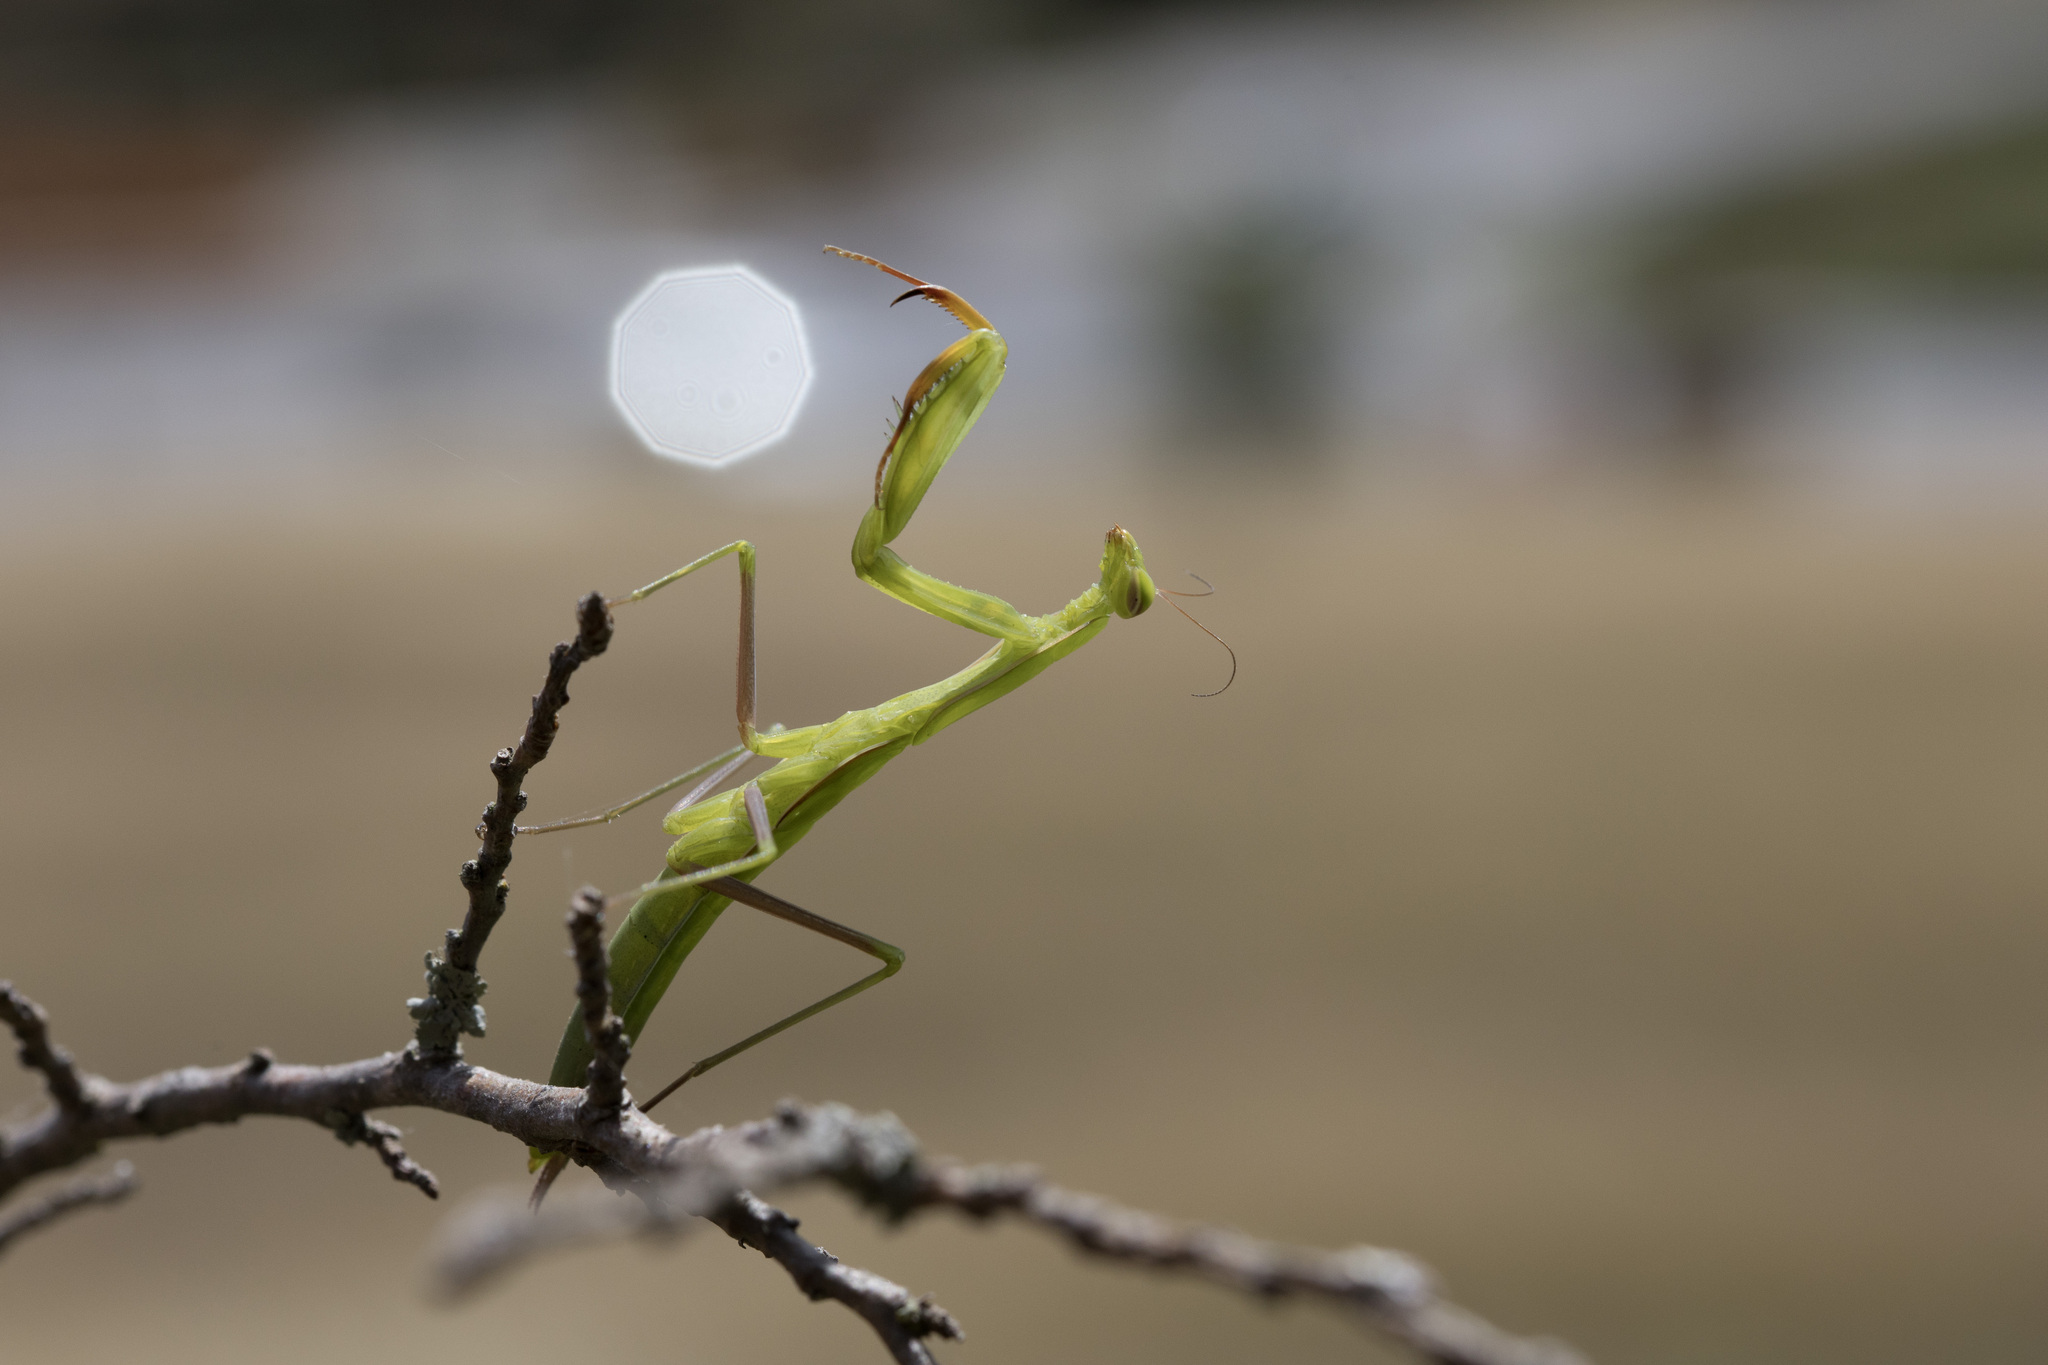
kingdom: Animalia
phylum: Arthropoda
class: Insecta
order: Mantodea
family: Mantidae
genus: Mantis
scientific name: Mantis religiosa
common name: Praying mantis
